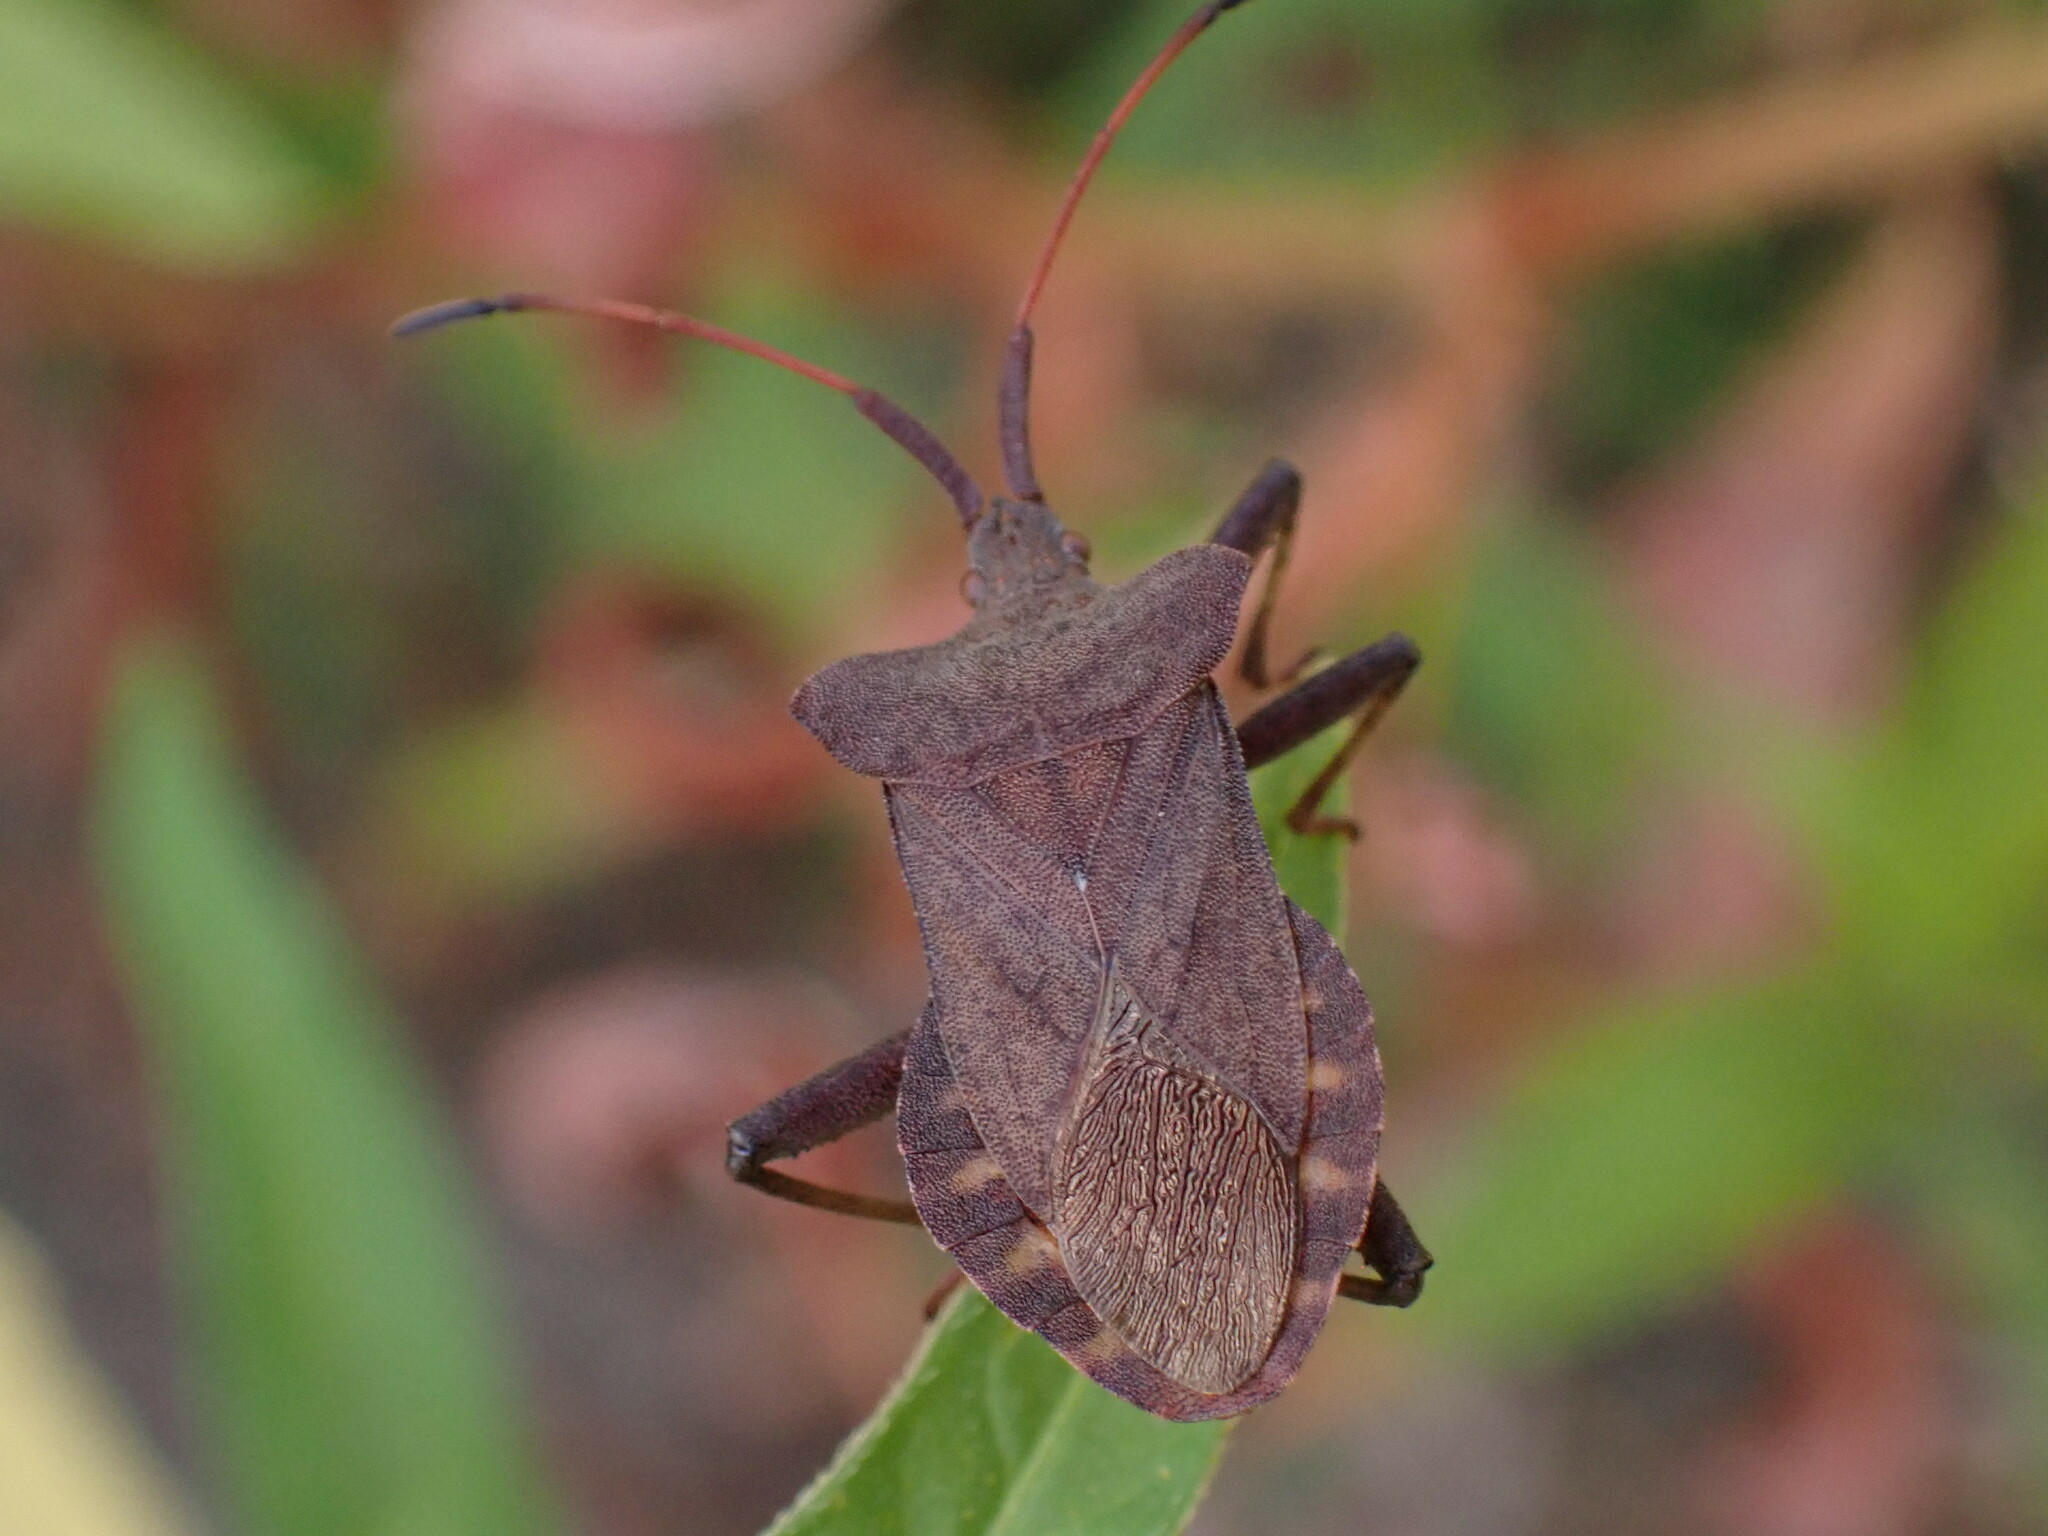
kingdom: Animalia
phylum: Arthropoda
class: Insecta
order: Hemiptera
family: Coreidae
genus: Coreus
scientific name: Coreus marginatus
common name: Dock bug
